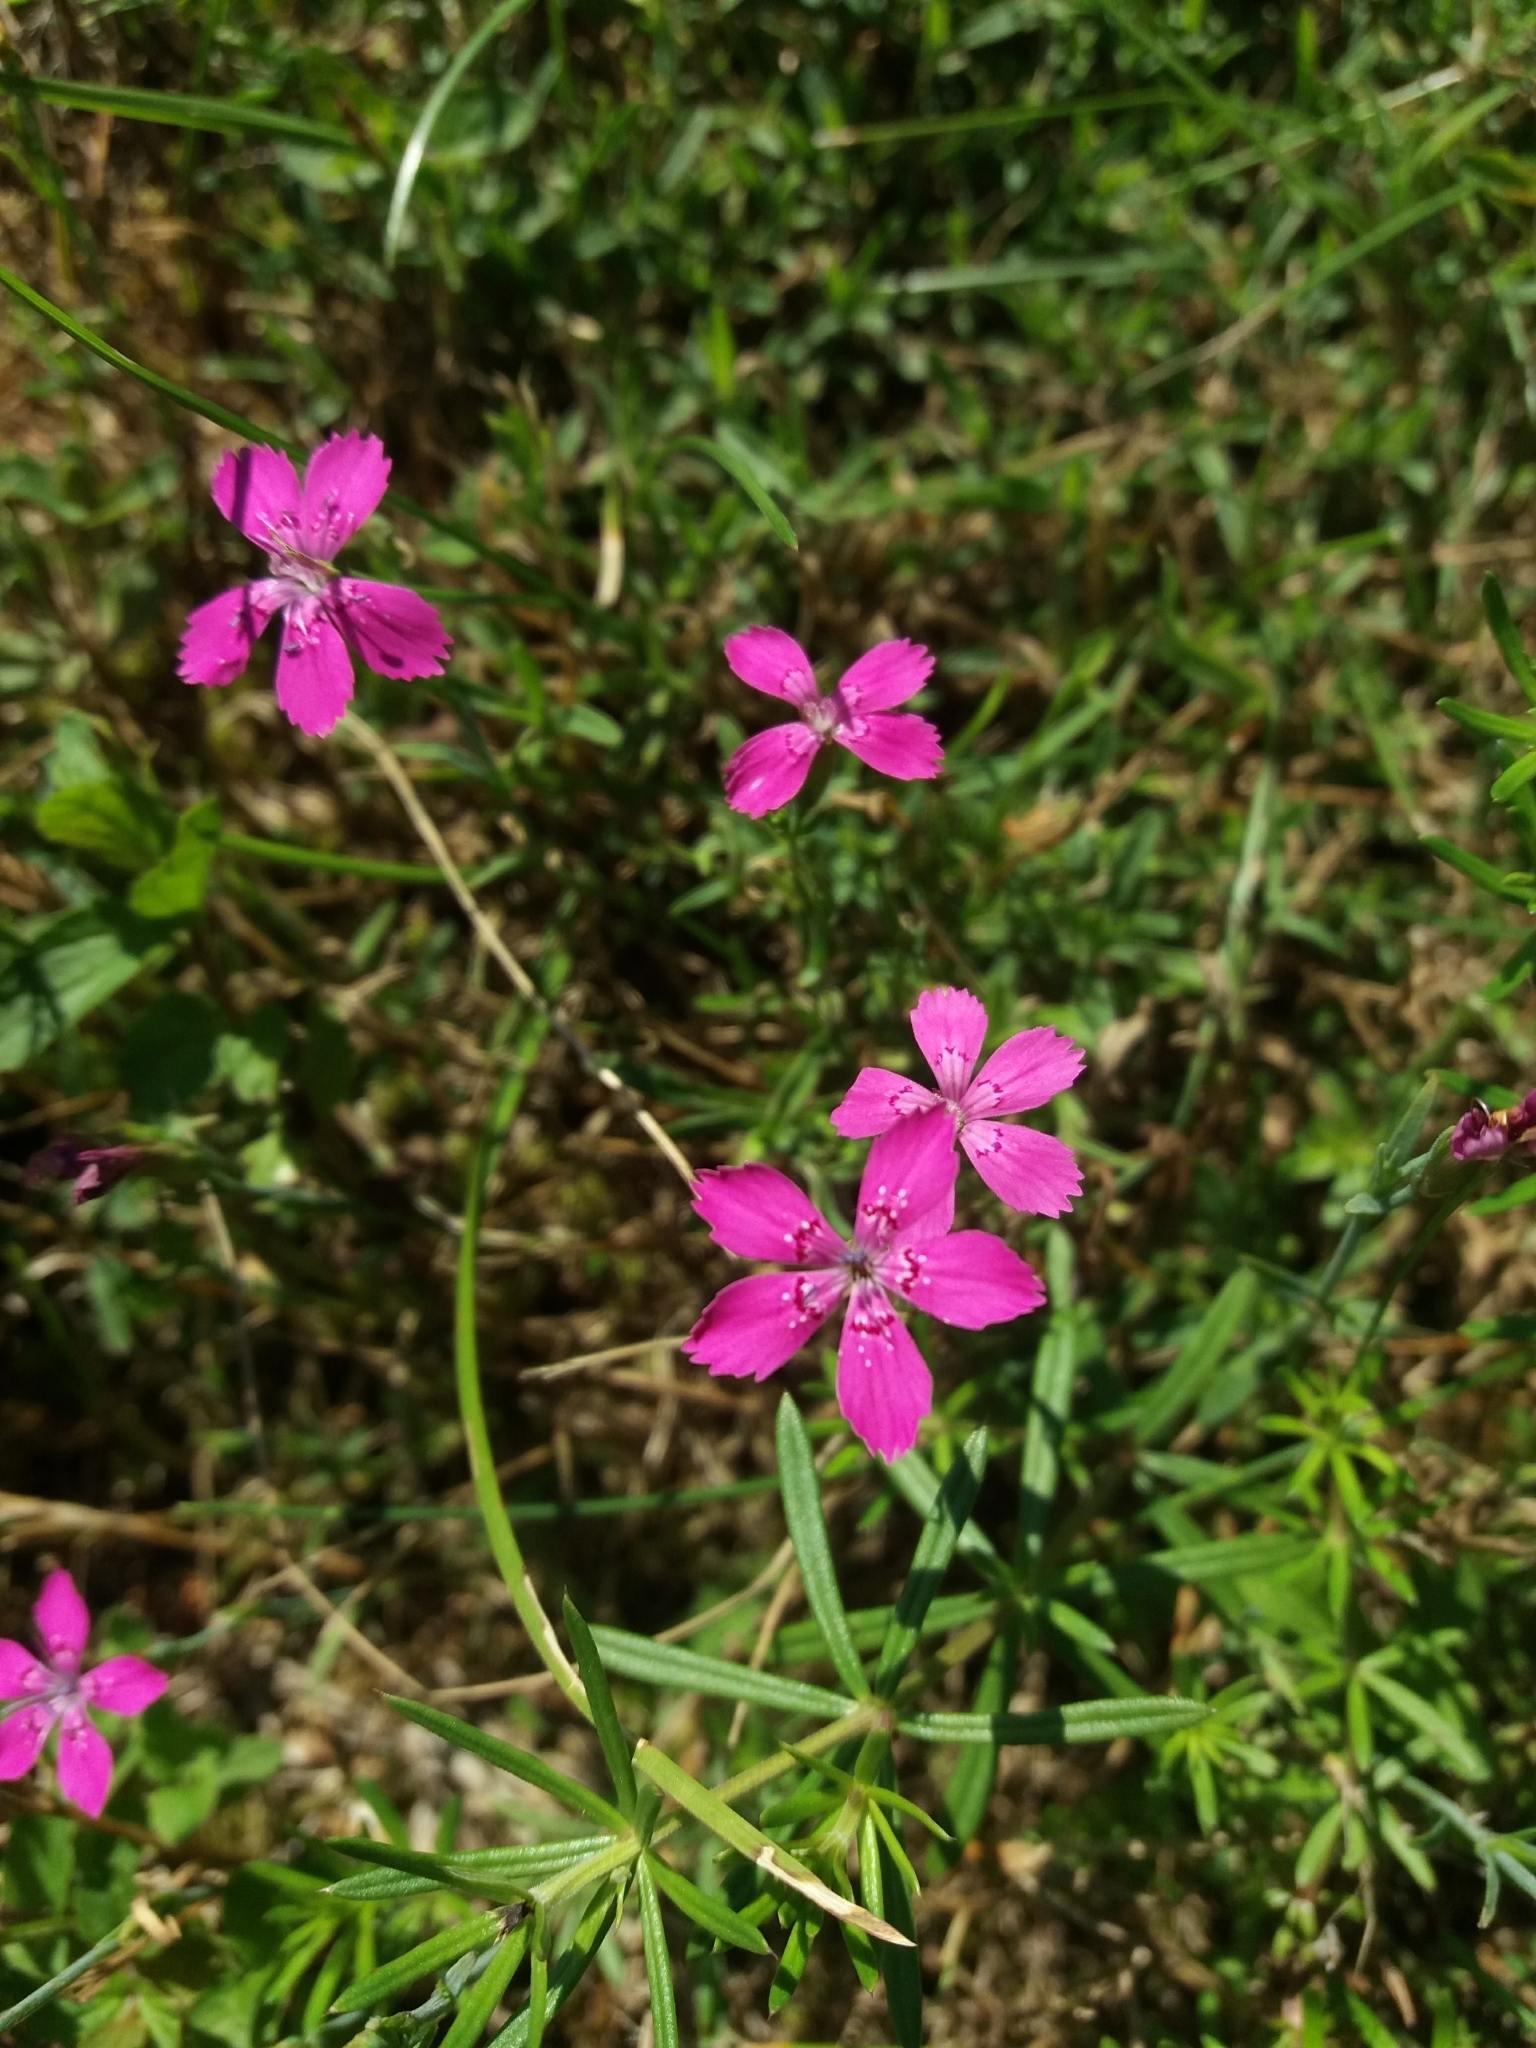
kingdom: Plantae
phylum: Tracheophyta
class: Magnoliopsida
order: Caryophyllales
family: Caryophyllaceae
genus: Dianthus
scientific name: Dianthus deltoides
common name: Maiden pink
